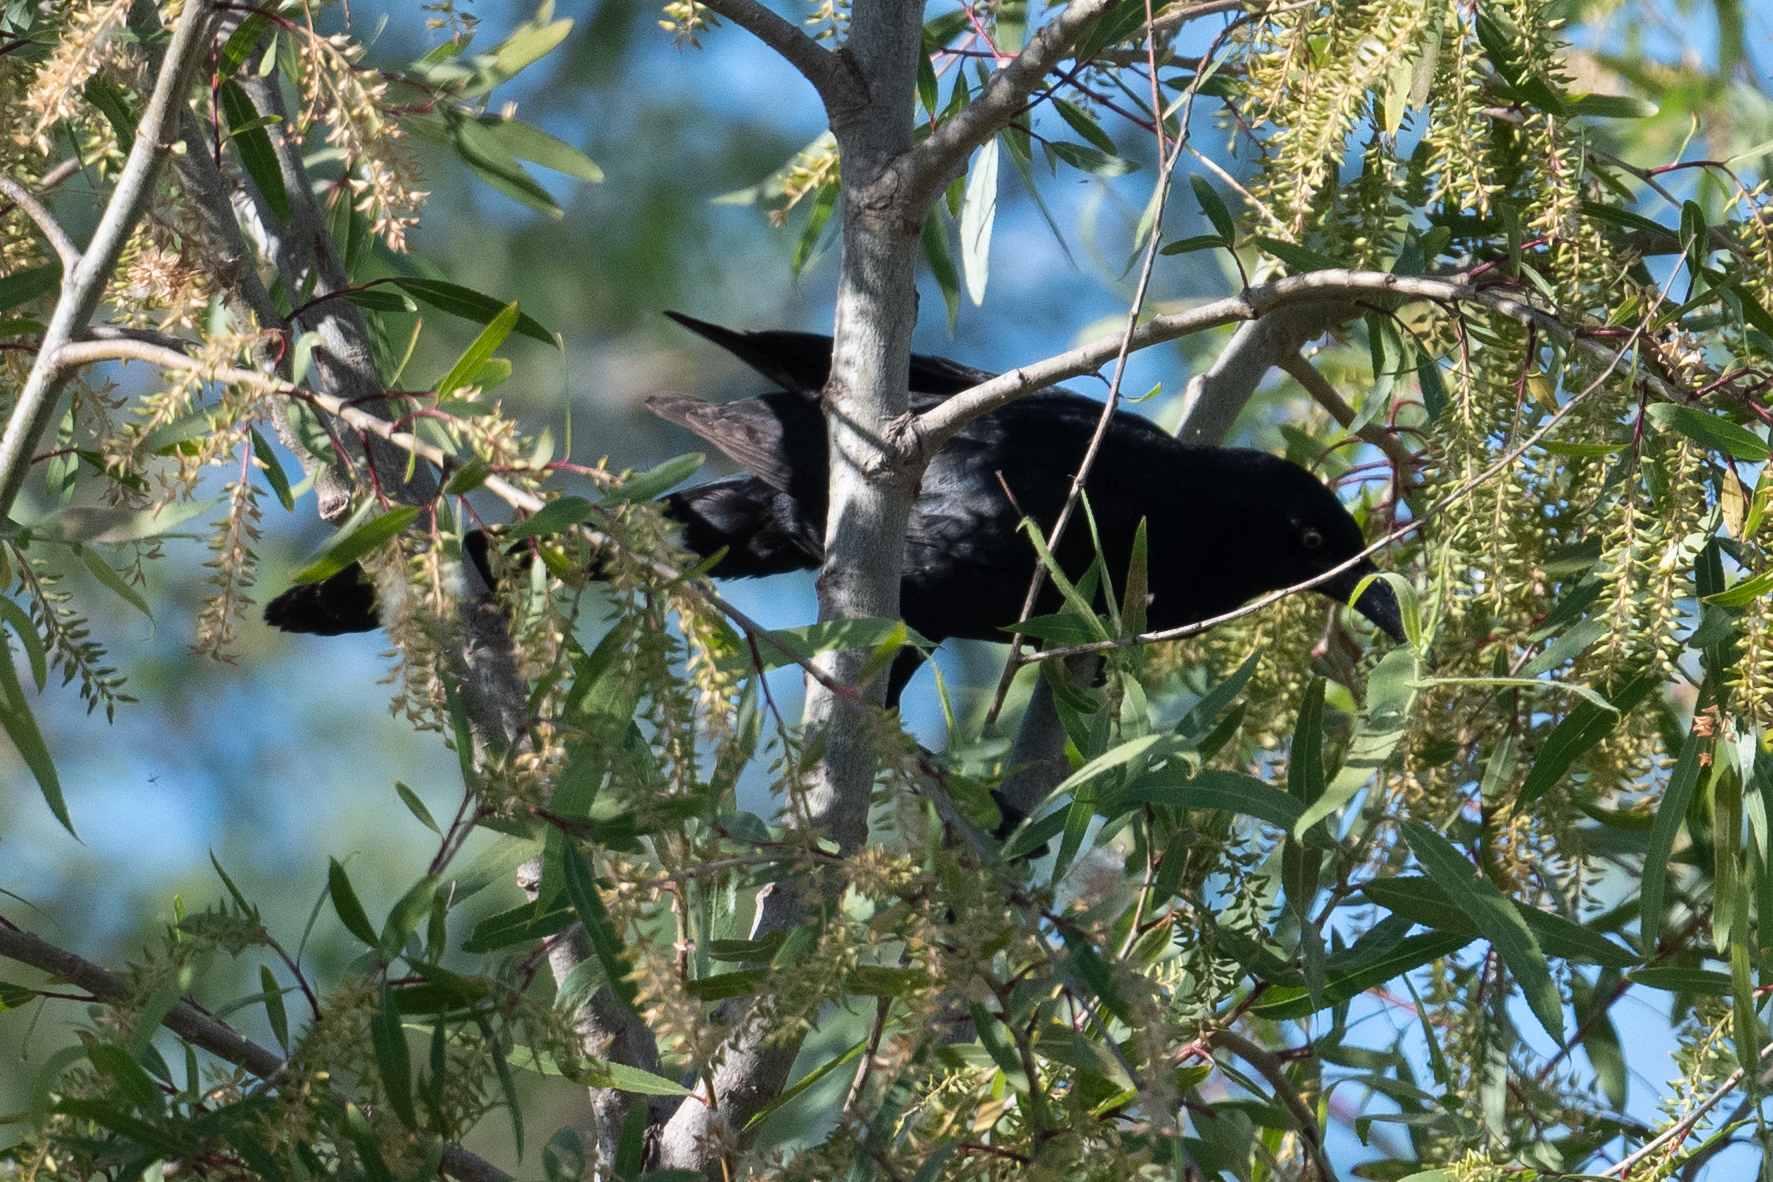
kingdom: Animalia
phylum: Chordata
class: Aves
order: Passeriformes
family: Icteridae
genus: Quiscalus
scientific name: Quiscalus mexicanus
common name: Great-tailed grackle
